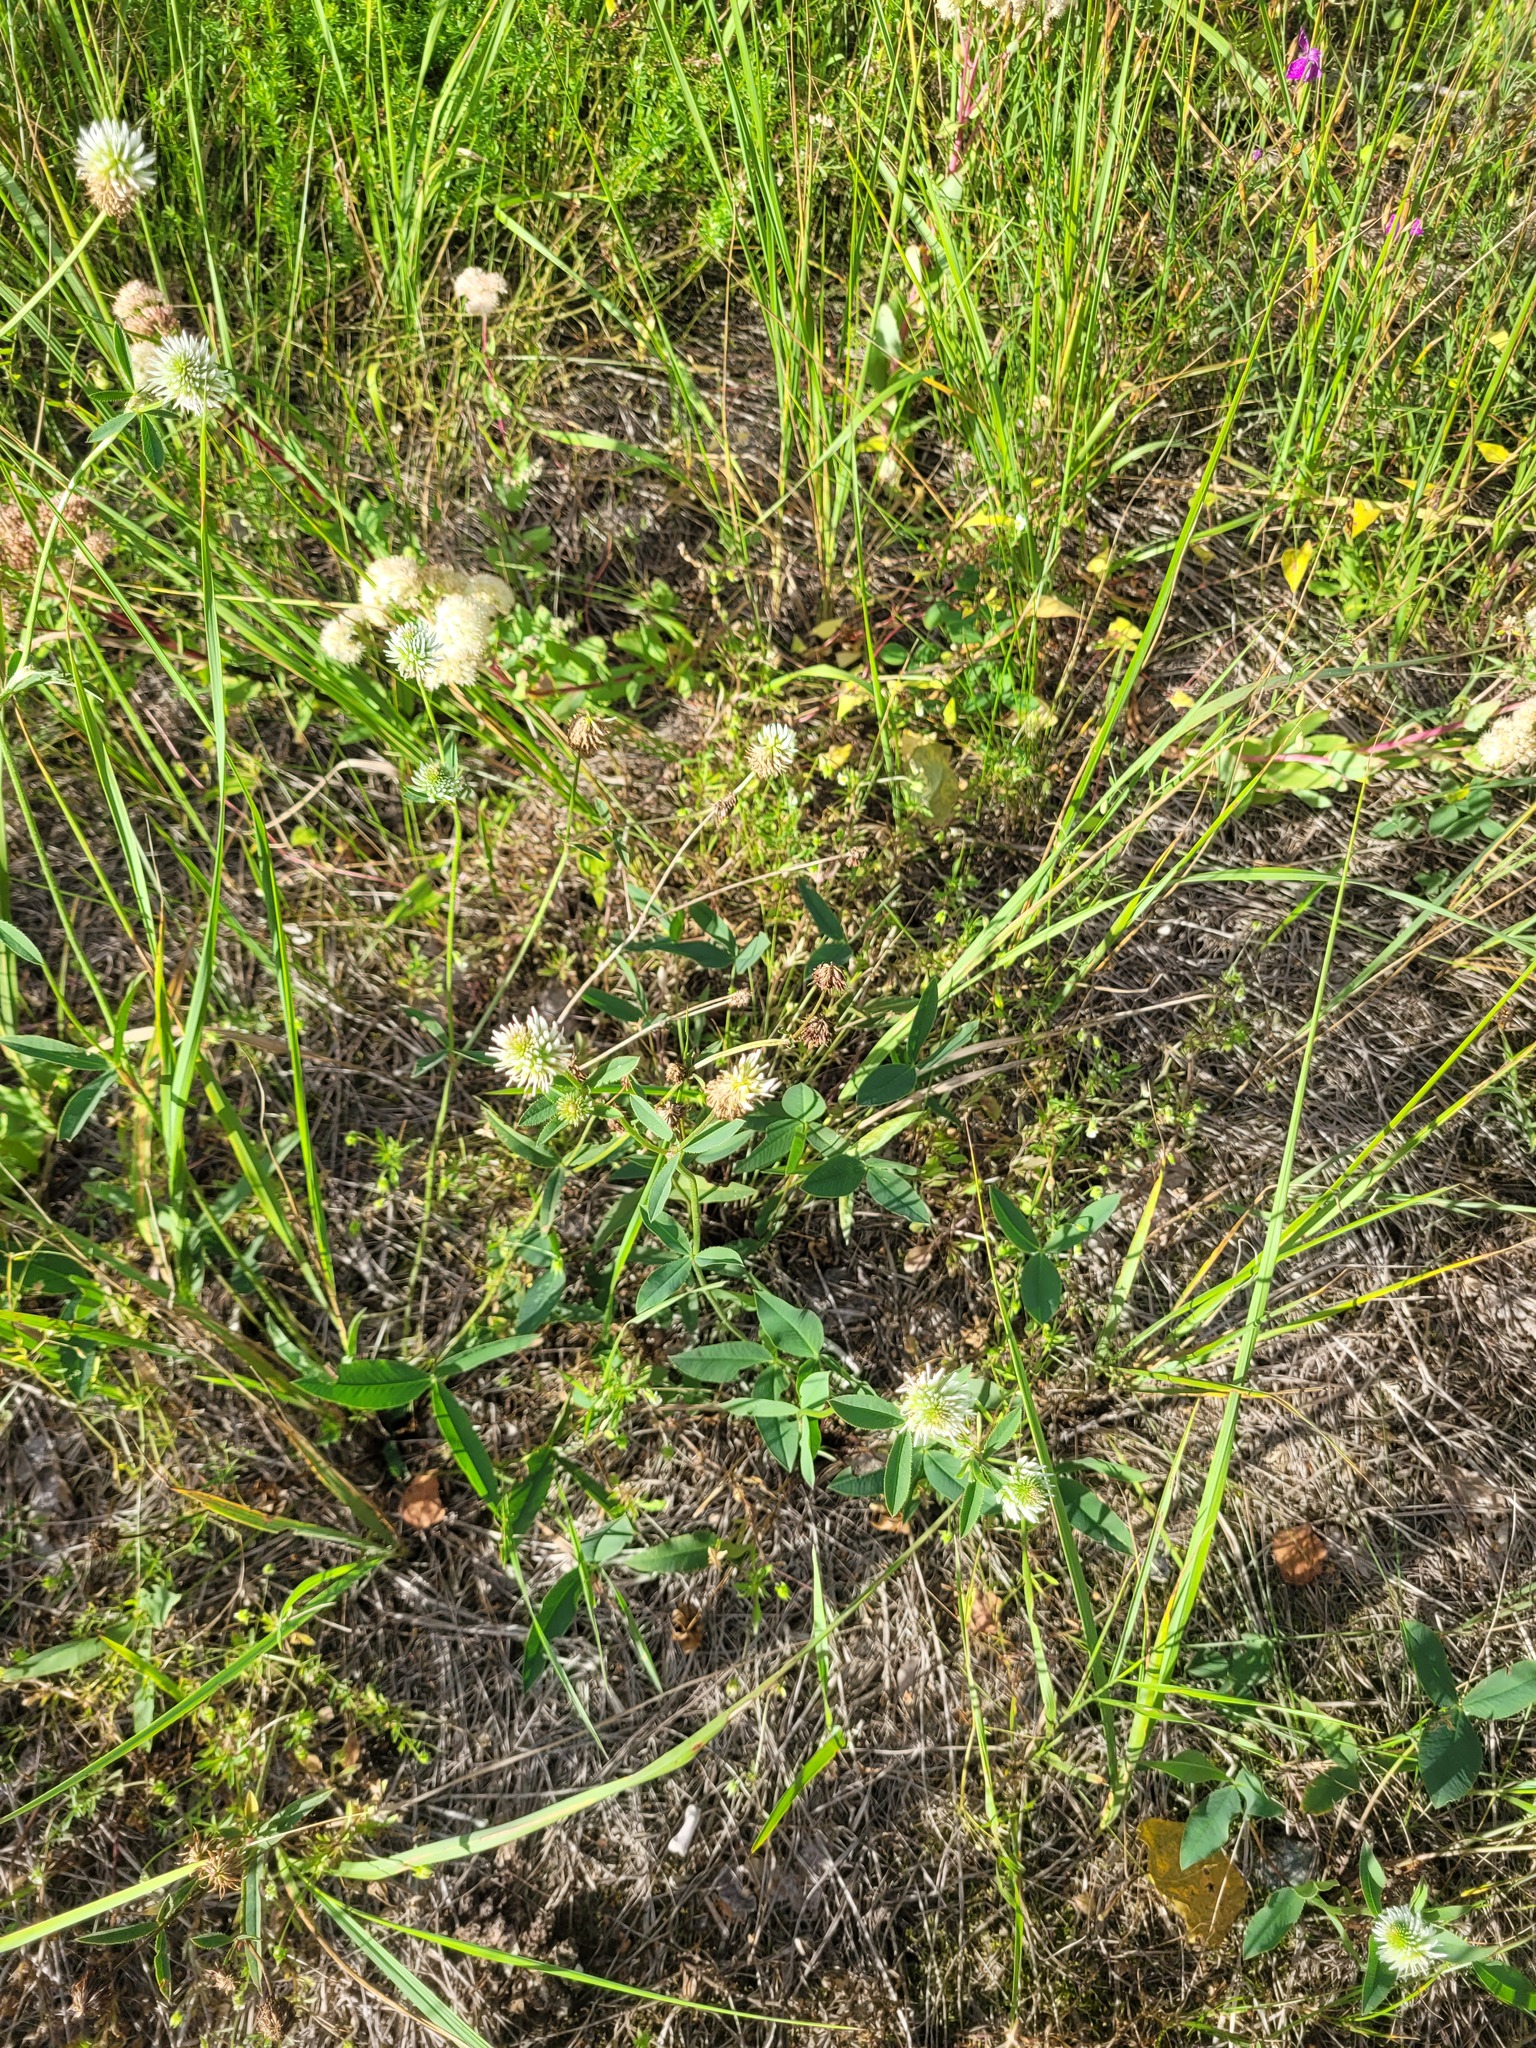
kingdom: Plantae
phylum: Tracheophyta
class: Magnoliopsida
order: Fabales
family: Fabaceae
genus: Trifolium
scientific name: Trifolium montanum
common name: Mountain clover
